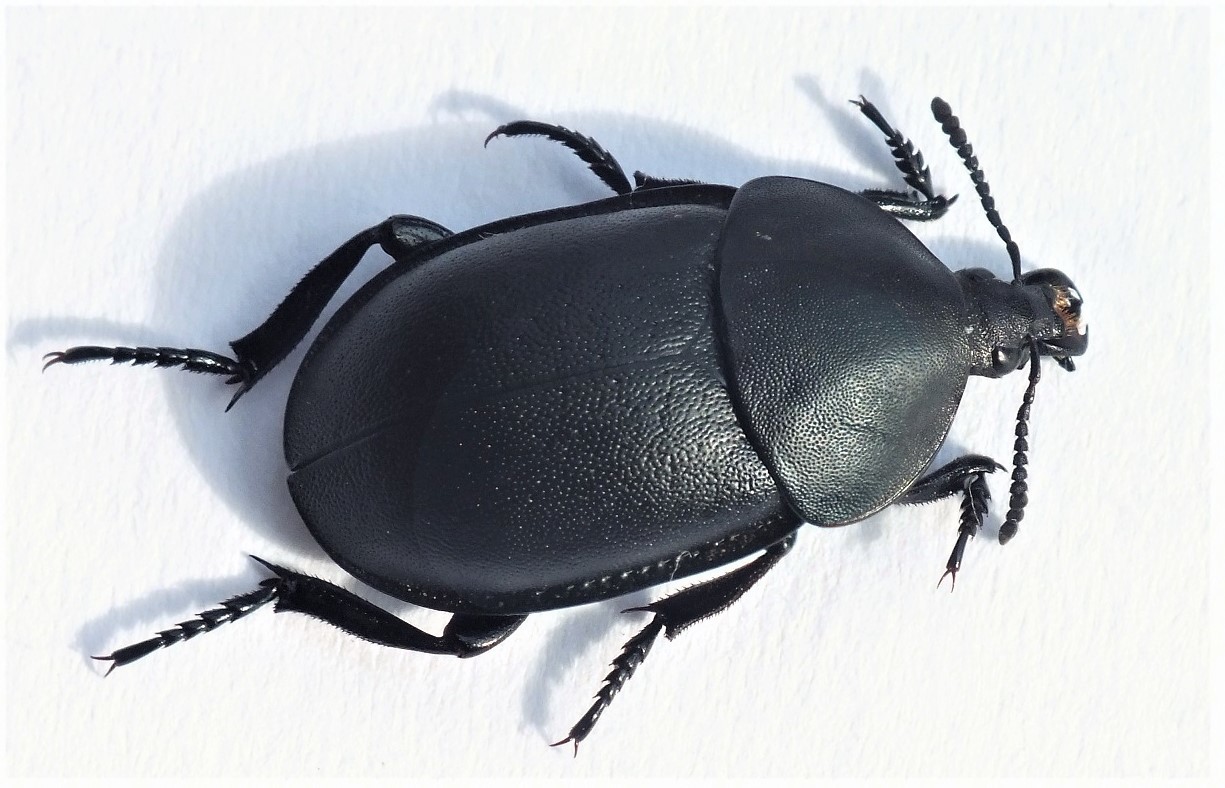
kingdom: Animalia
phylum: Arthropoda
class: Insecta
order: Coleoptera
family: Staphylinidae
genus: Silpha
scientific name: Silpha laevigata
